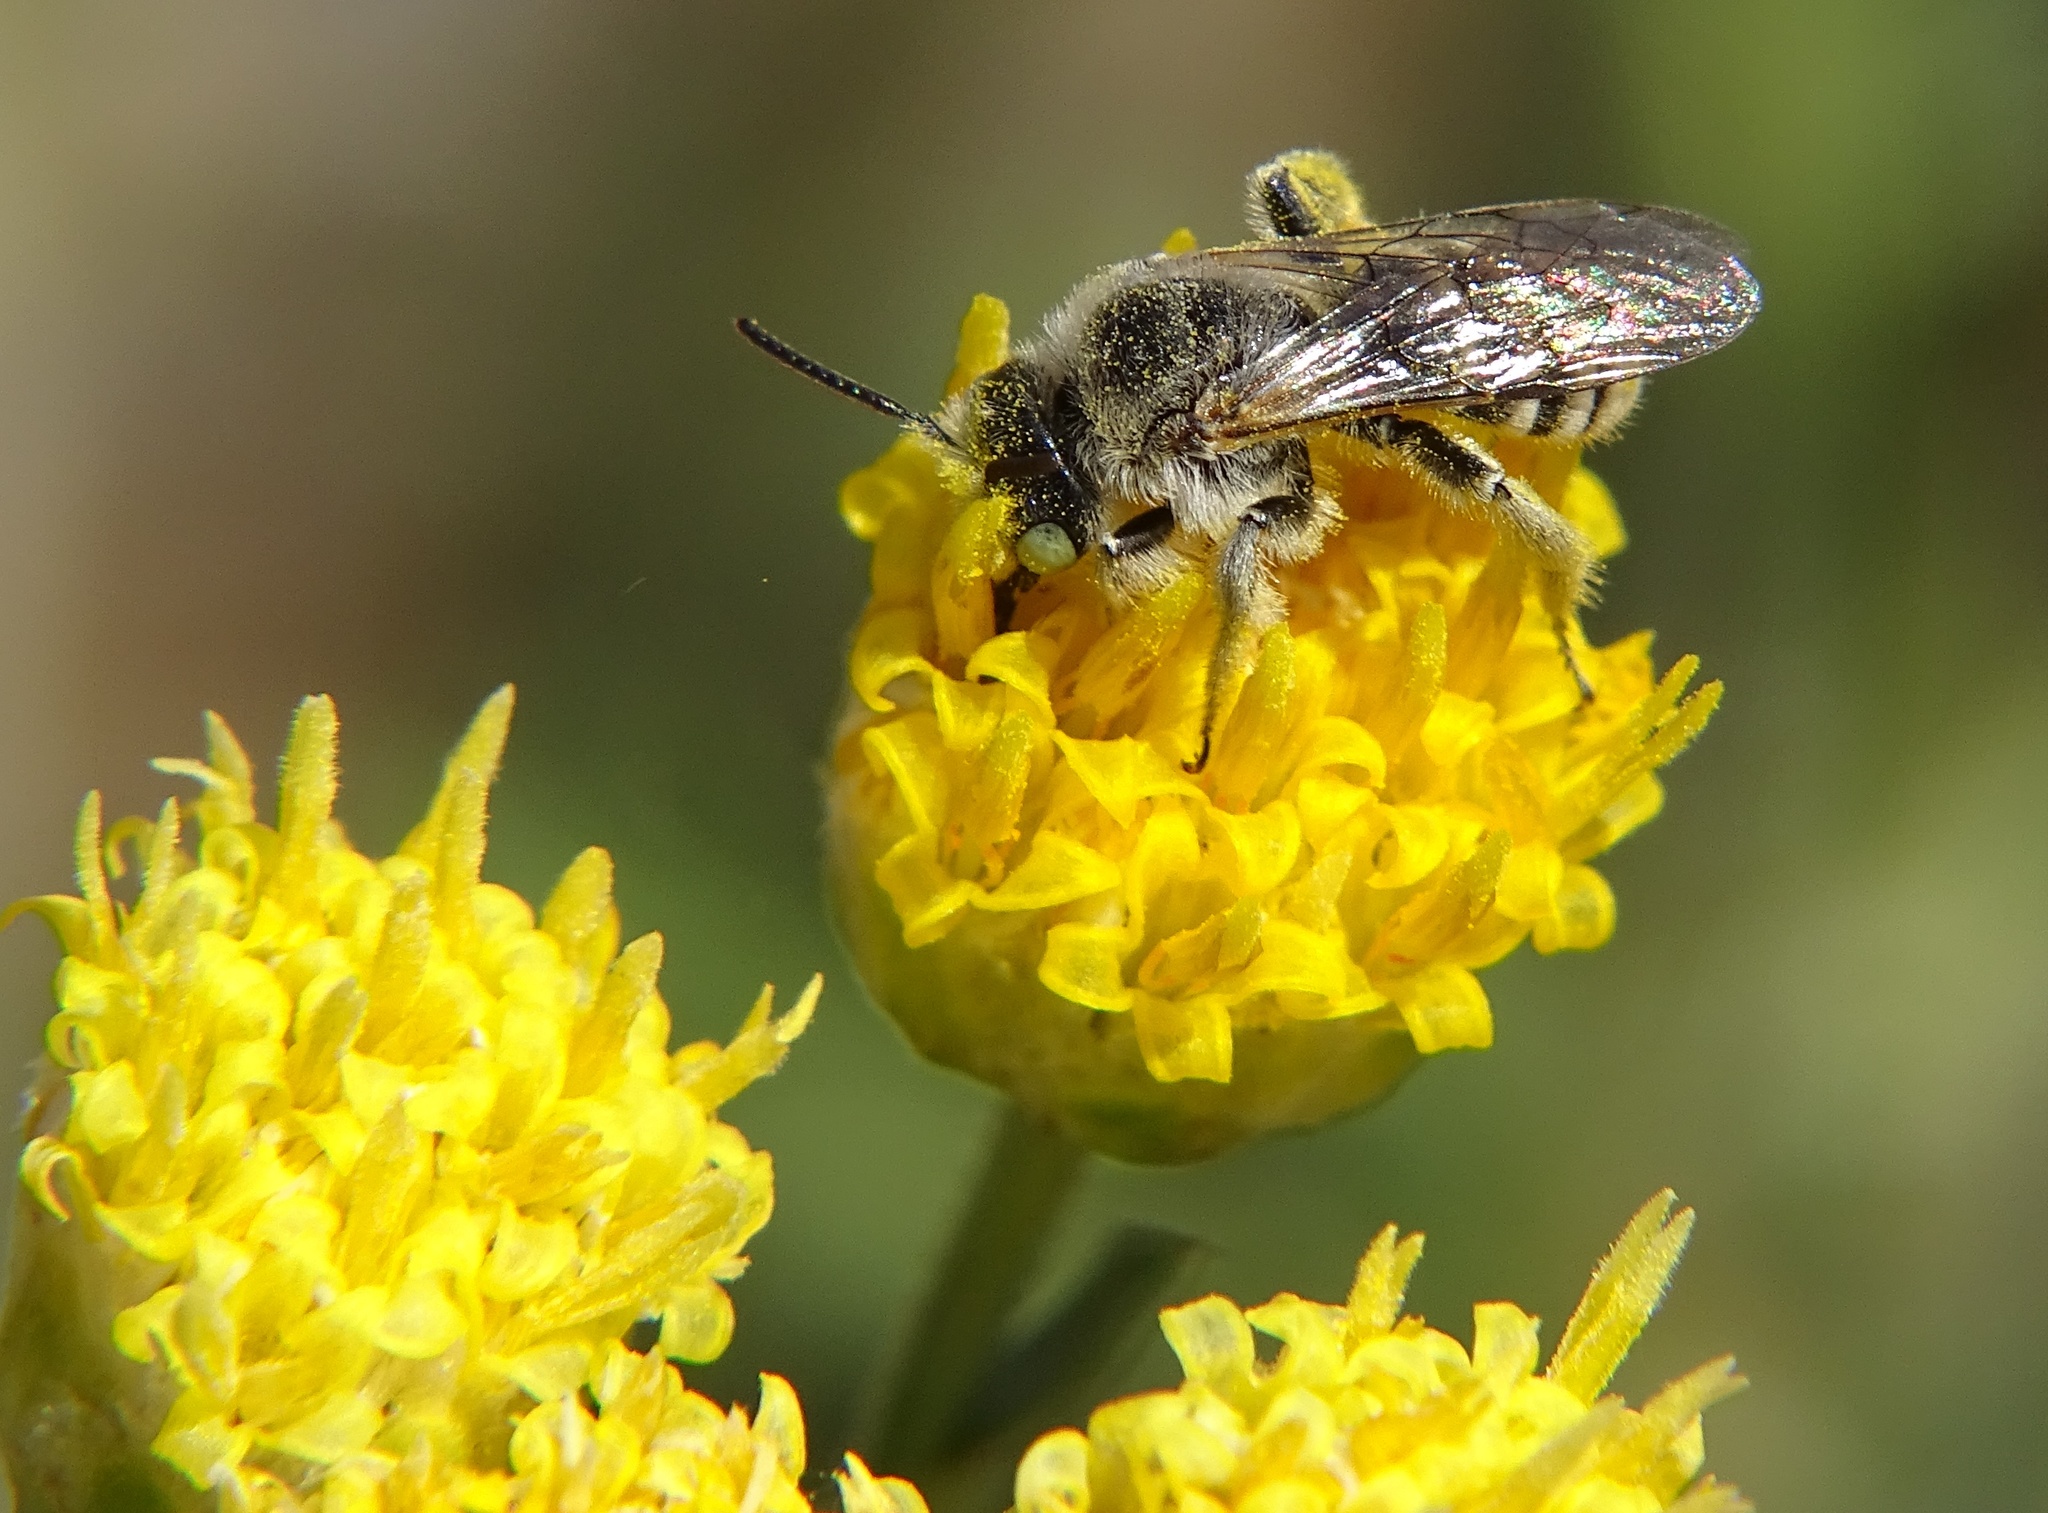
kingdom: Animalia
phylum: Arthropoda
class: Insecta
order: Hymenoptera
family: Melittidae
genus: Hesperapis
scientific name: Hesperapis
